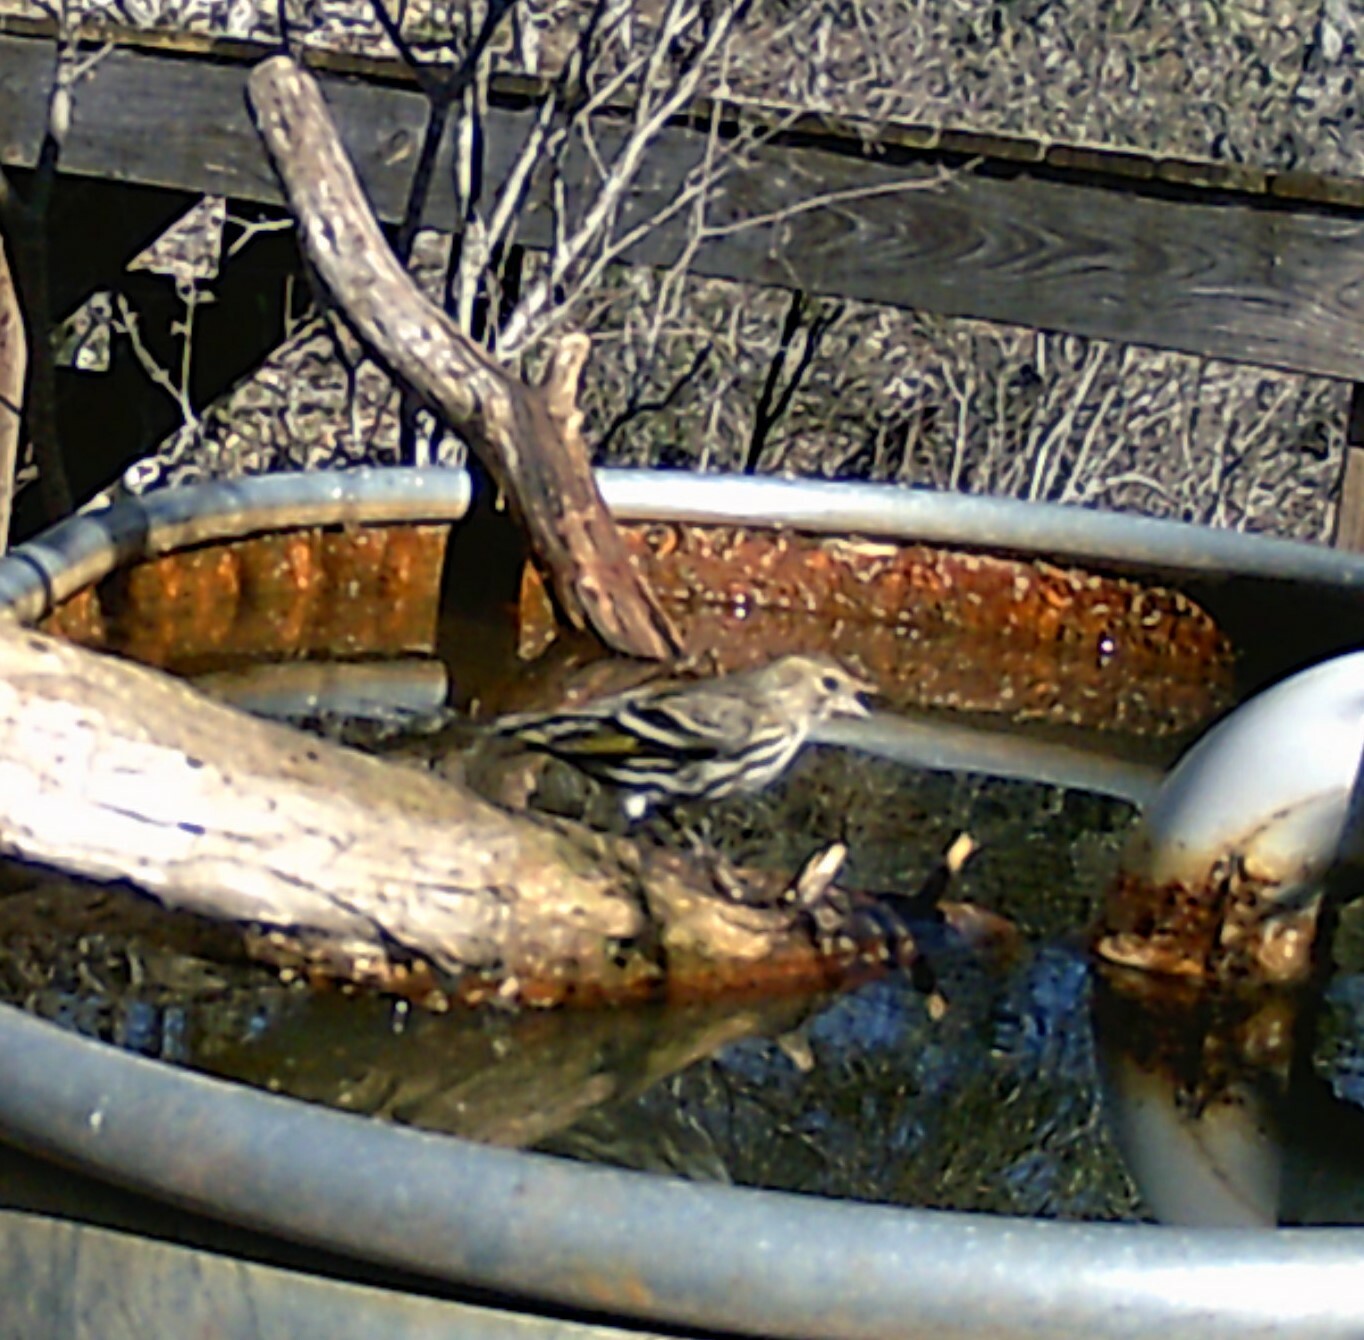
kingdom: Animalia
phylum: Chordata
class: Aves
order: Passeriformes
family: Fringillidae
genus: Spinus
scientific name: Spinus pinus
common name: Pine siskin
